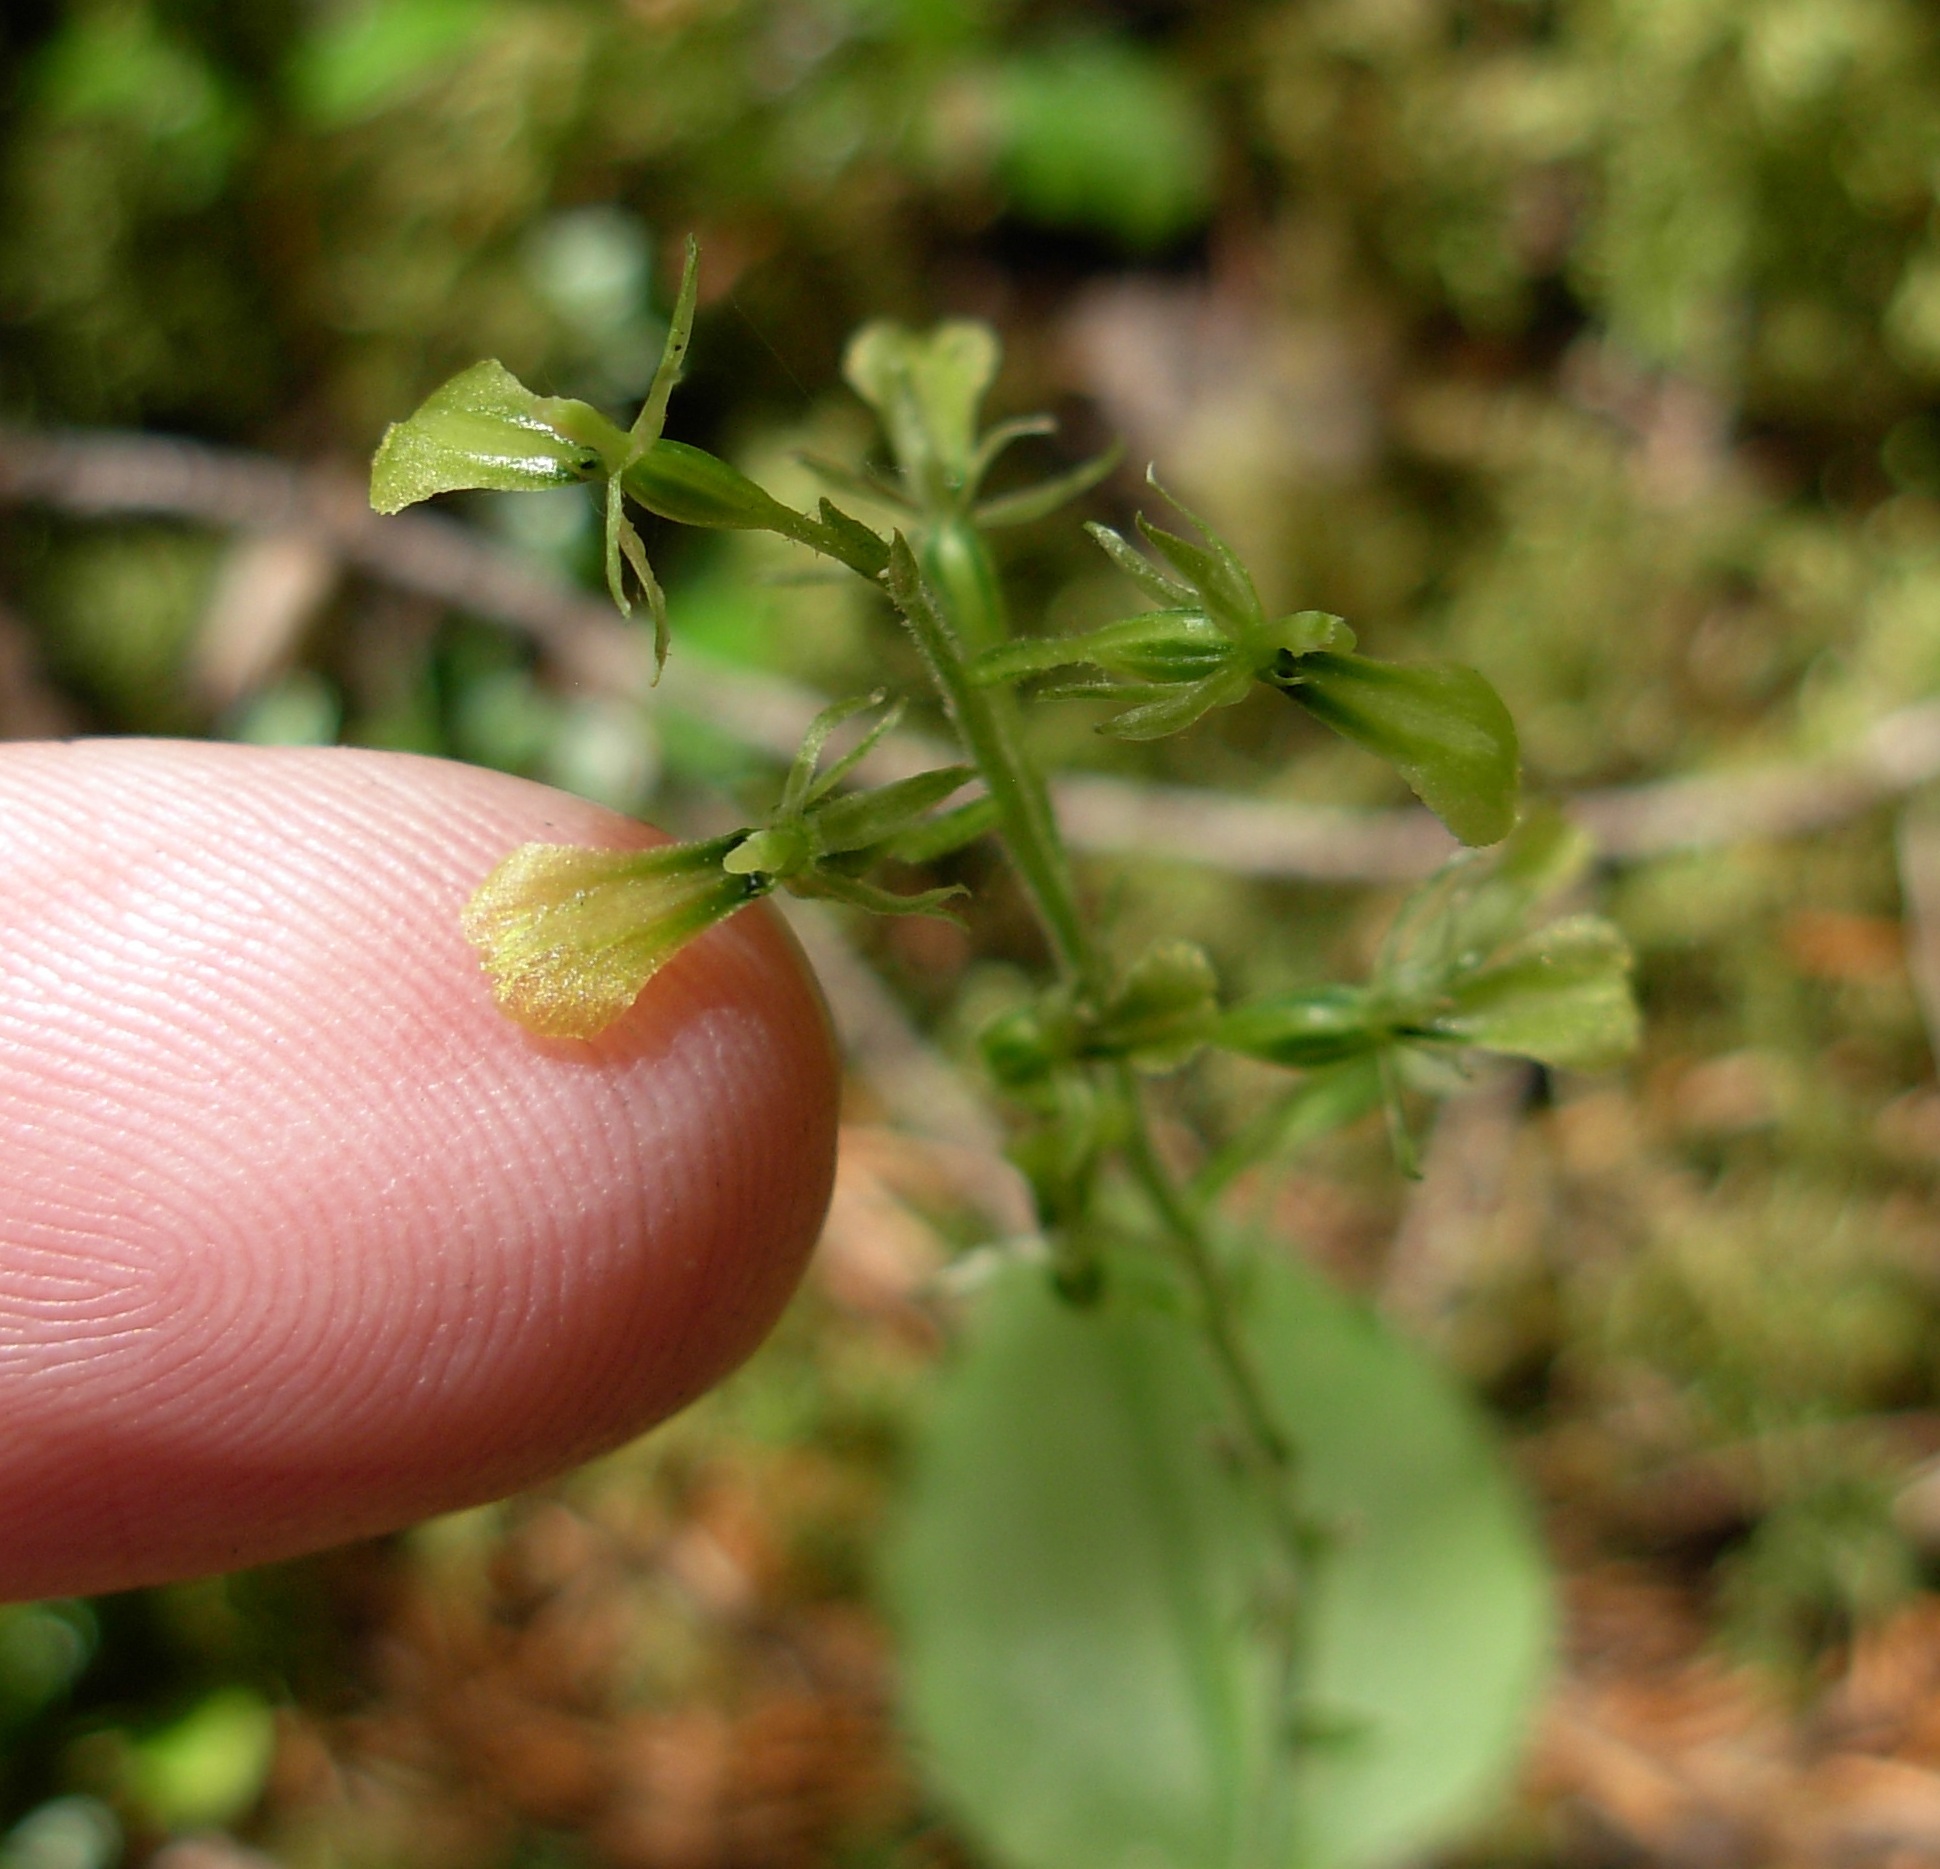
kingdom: Plantae
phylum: Tracheophyta
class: Liliopsida
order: Asparagales
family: Orchidaceae
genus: Neottia
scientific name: Neottia banksiana
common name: Northwestern twayblade
